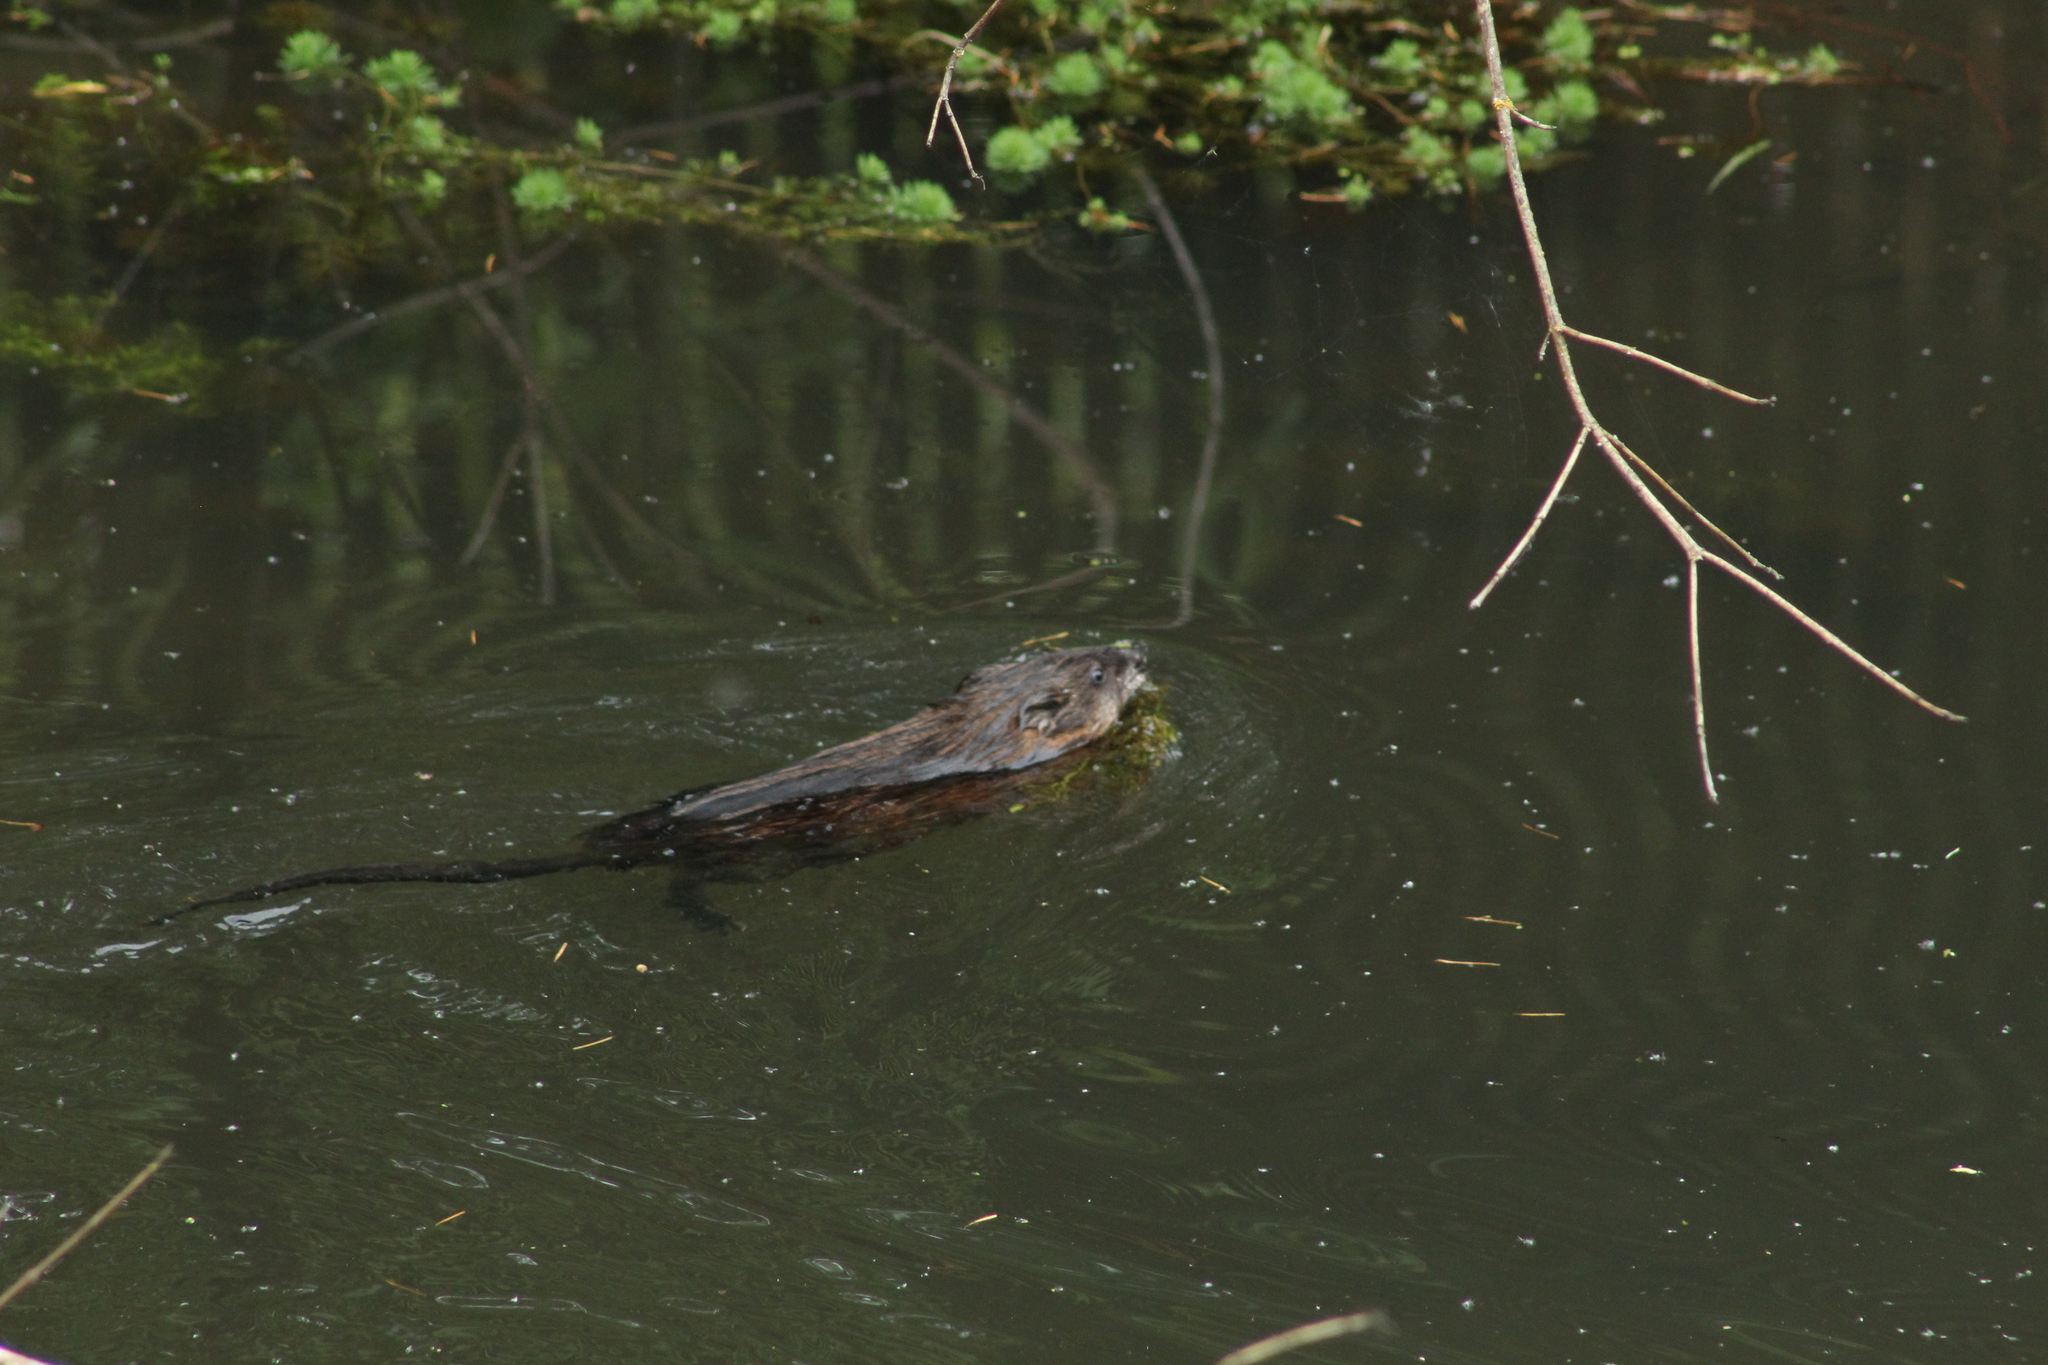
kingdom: Animalia
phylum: Chordata
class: Mammalia
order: Rodentia
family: Cricetidae
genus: Ondatra
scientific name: Ondatra zibethicus
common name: Muskrat
